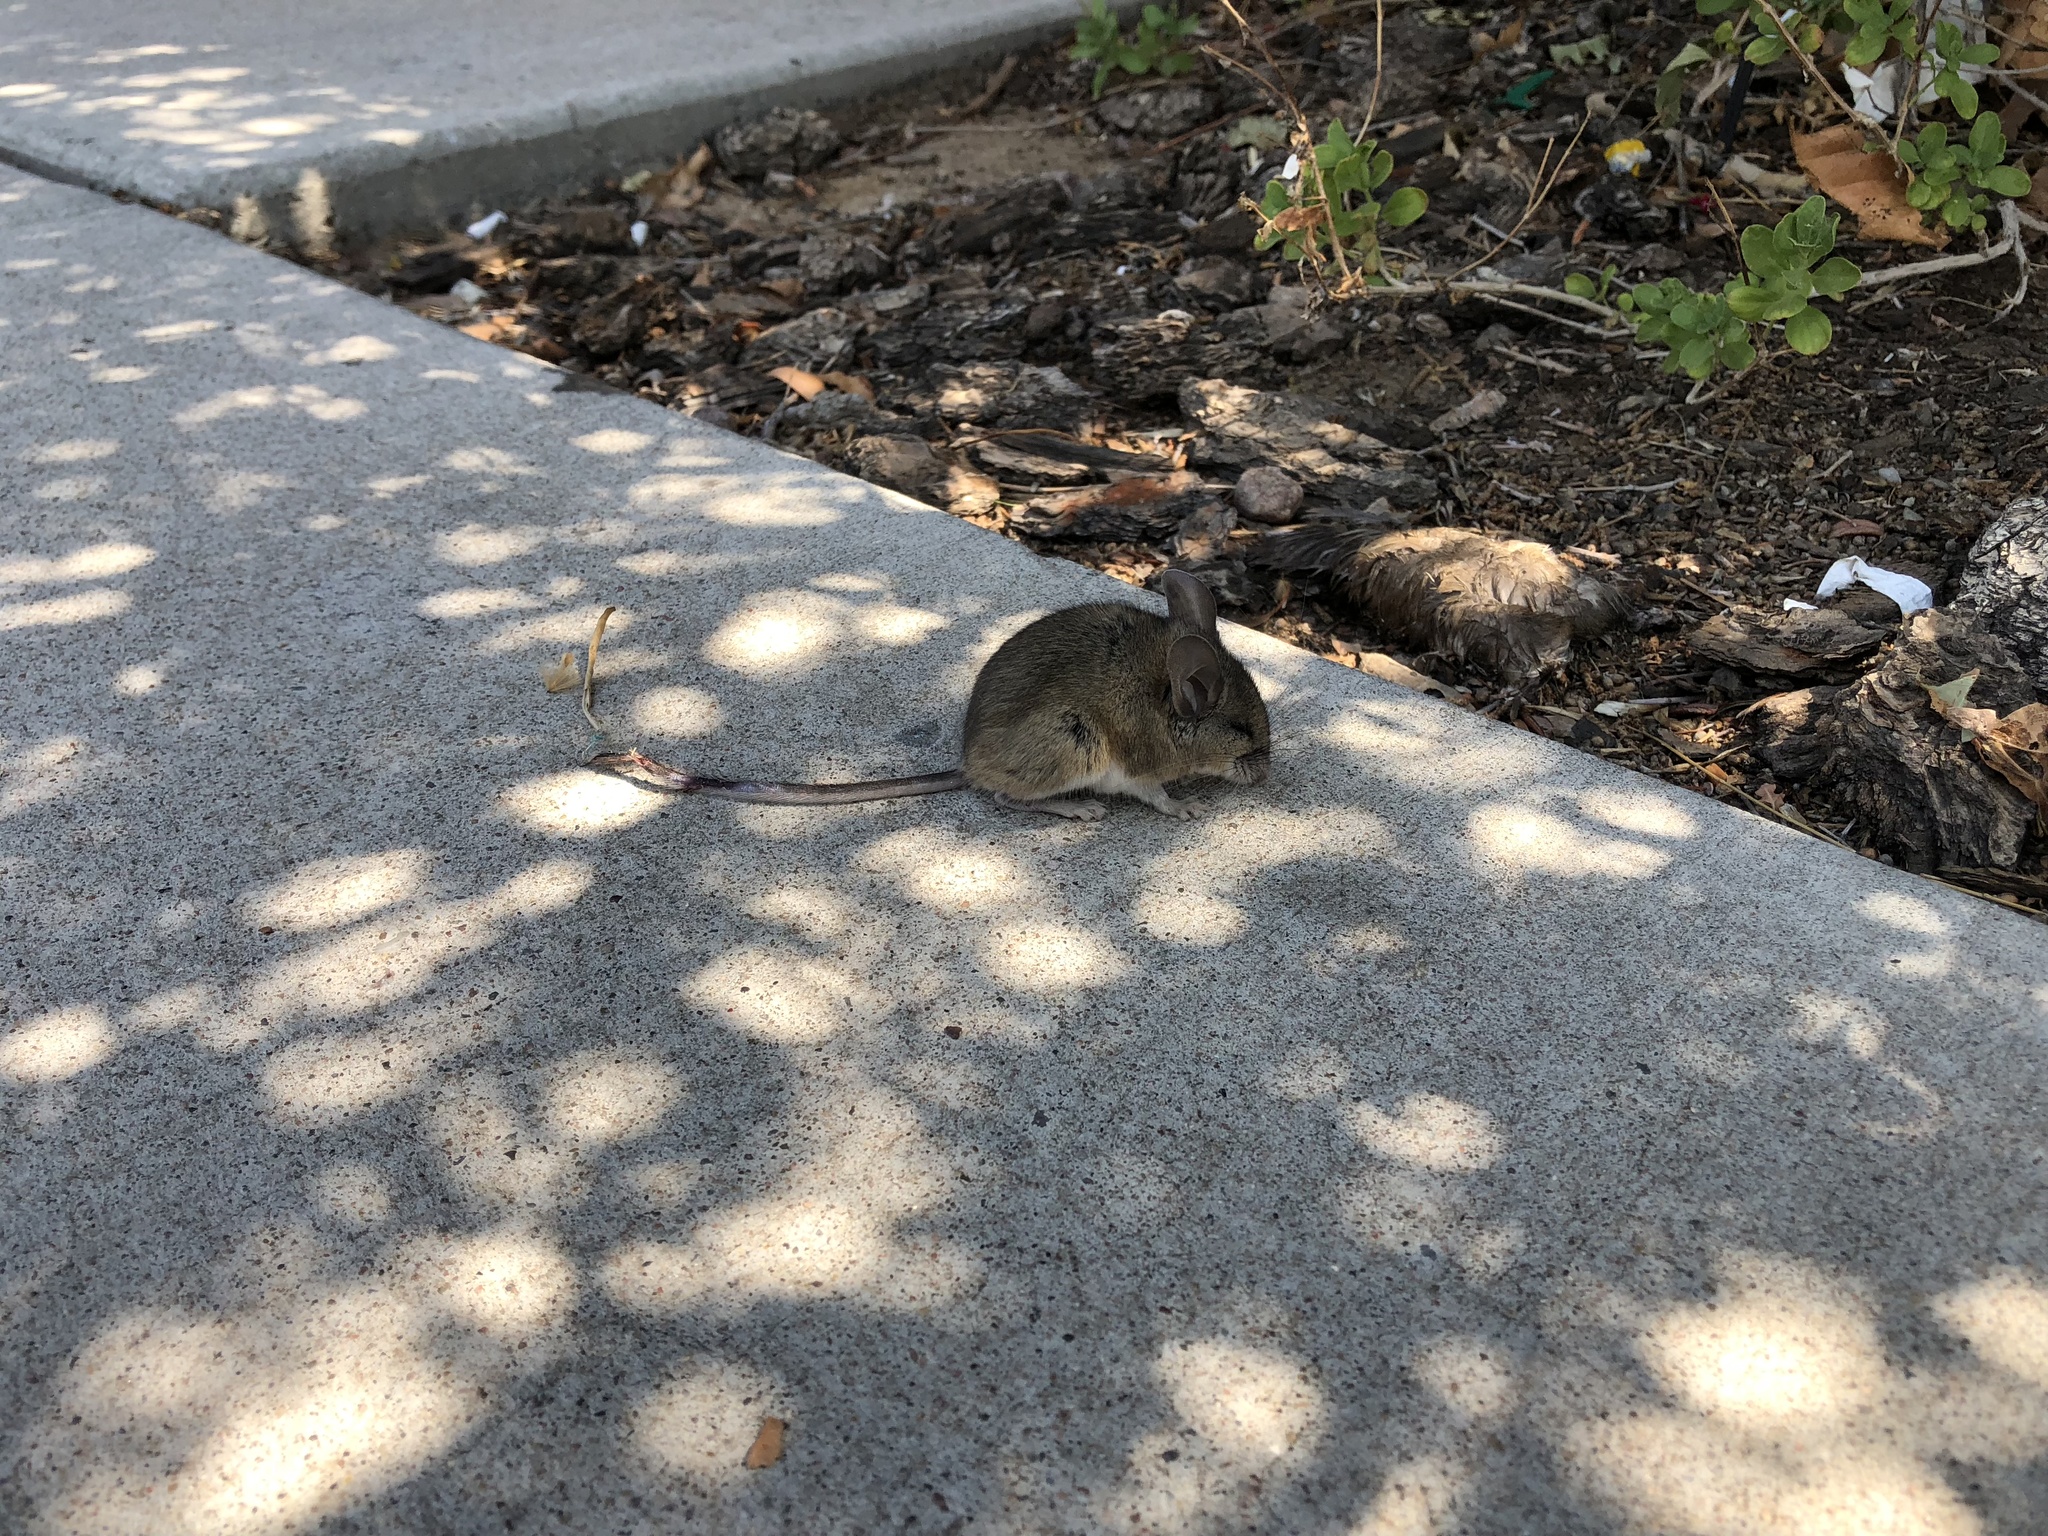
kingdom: Animalia
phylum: Chordata
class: Mammalia
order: Rodentia
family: Cricetidae
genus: Peromyscus
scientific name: Peromyscus
